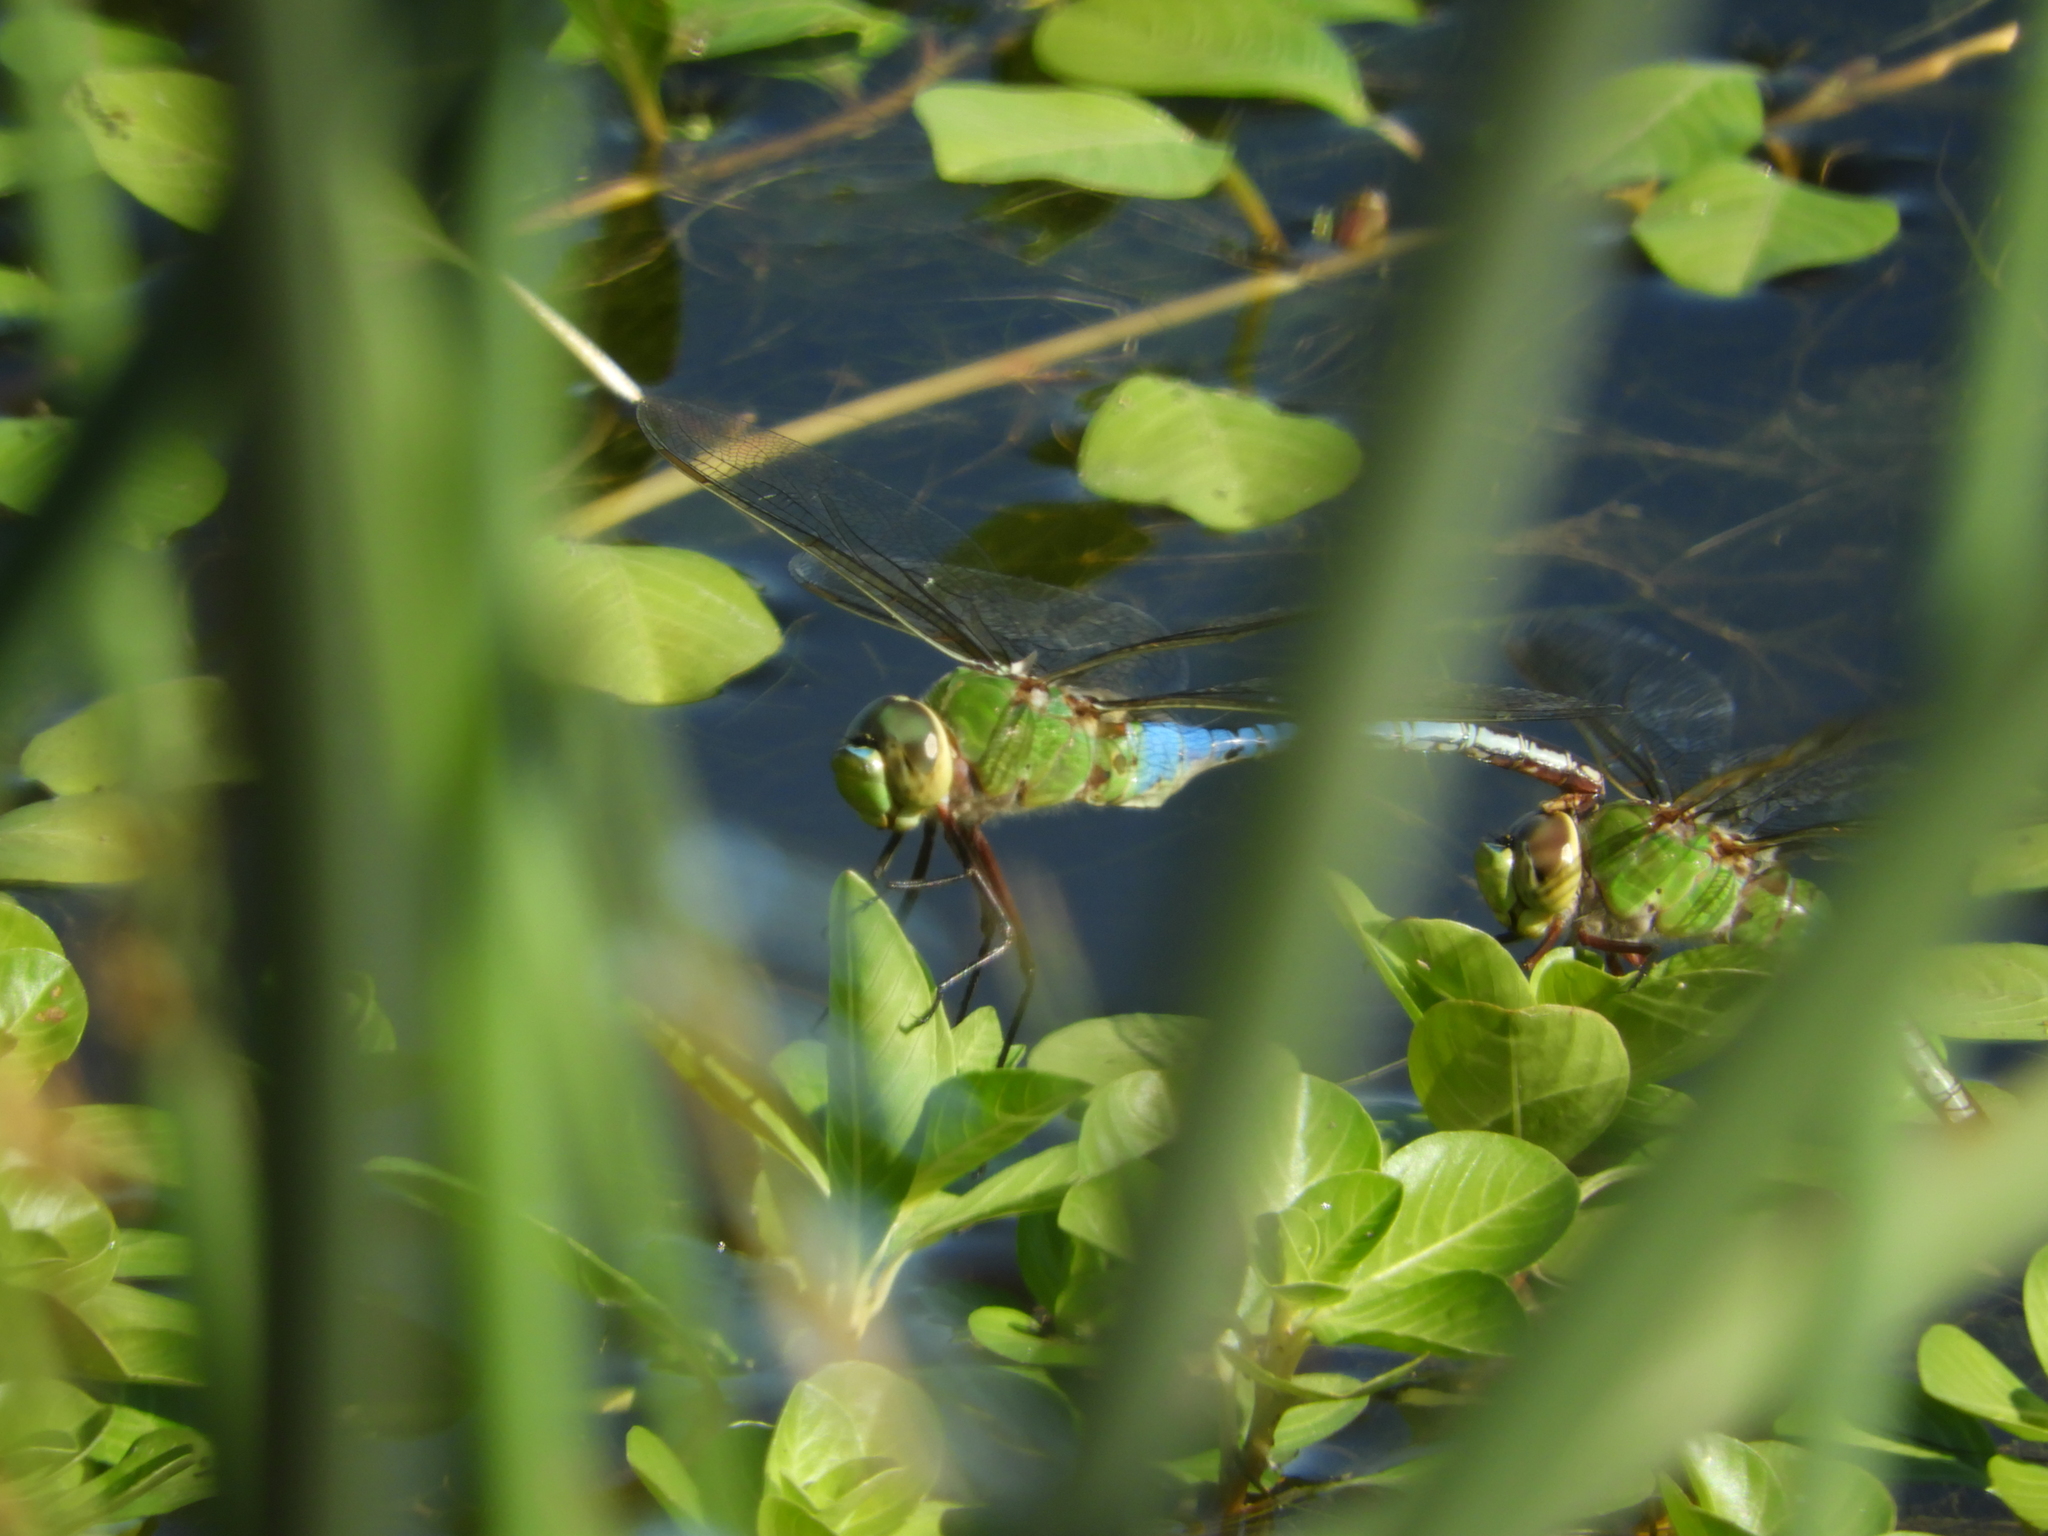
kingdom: Animalia
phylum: Arthropoda
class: Insecta
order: Odonata
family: Aeshnidae
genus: Anax
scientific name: Anax junius
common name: Common green darner
